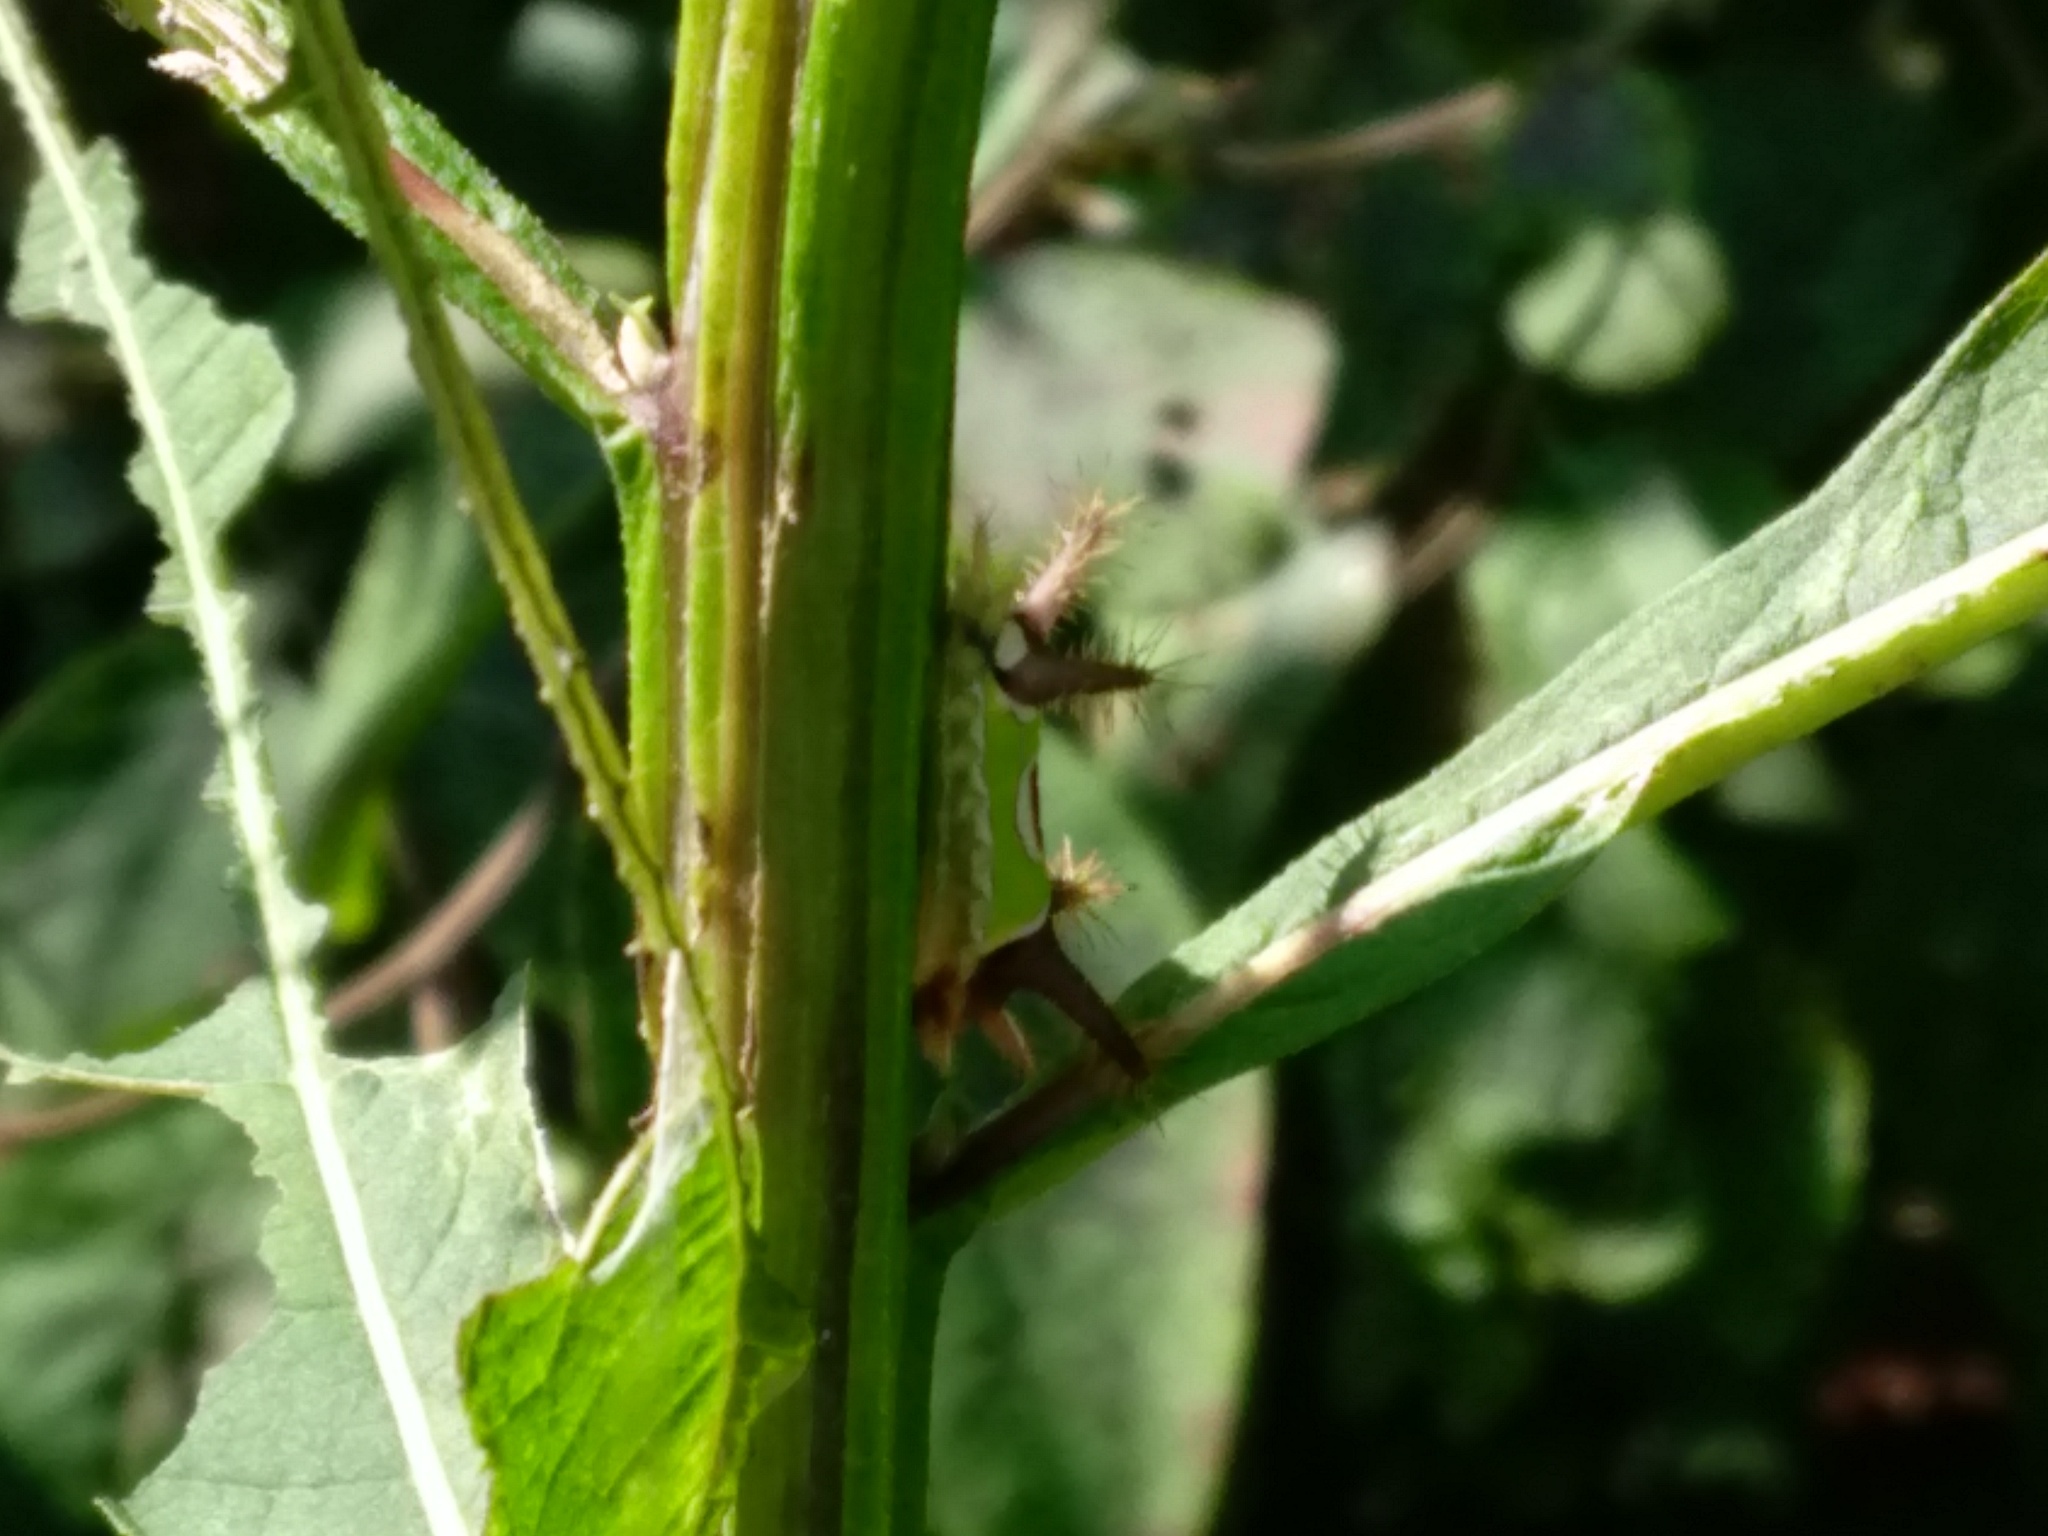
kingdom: Plantae
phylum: Tracheophyta
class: Magnoliopsida
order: Asterales
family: Asteraceae
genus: Verbesina
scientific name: Verbesina alternifolia
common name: Wingstem
